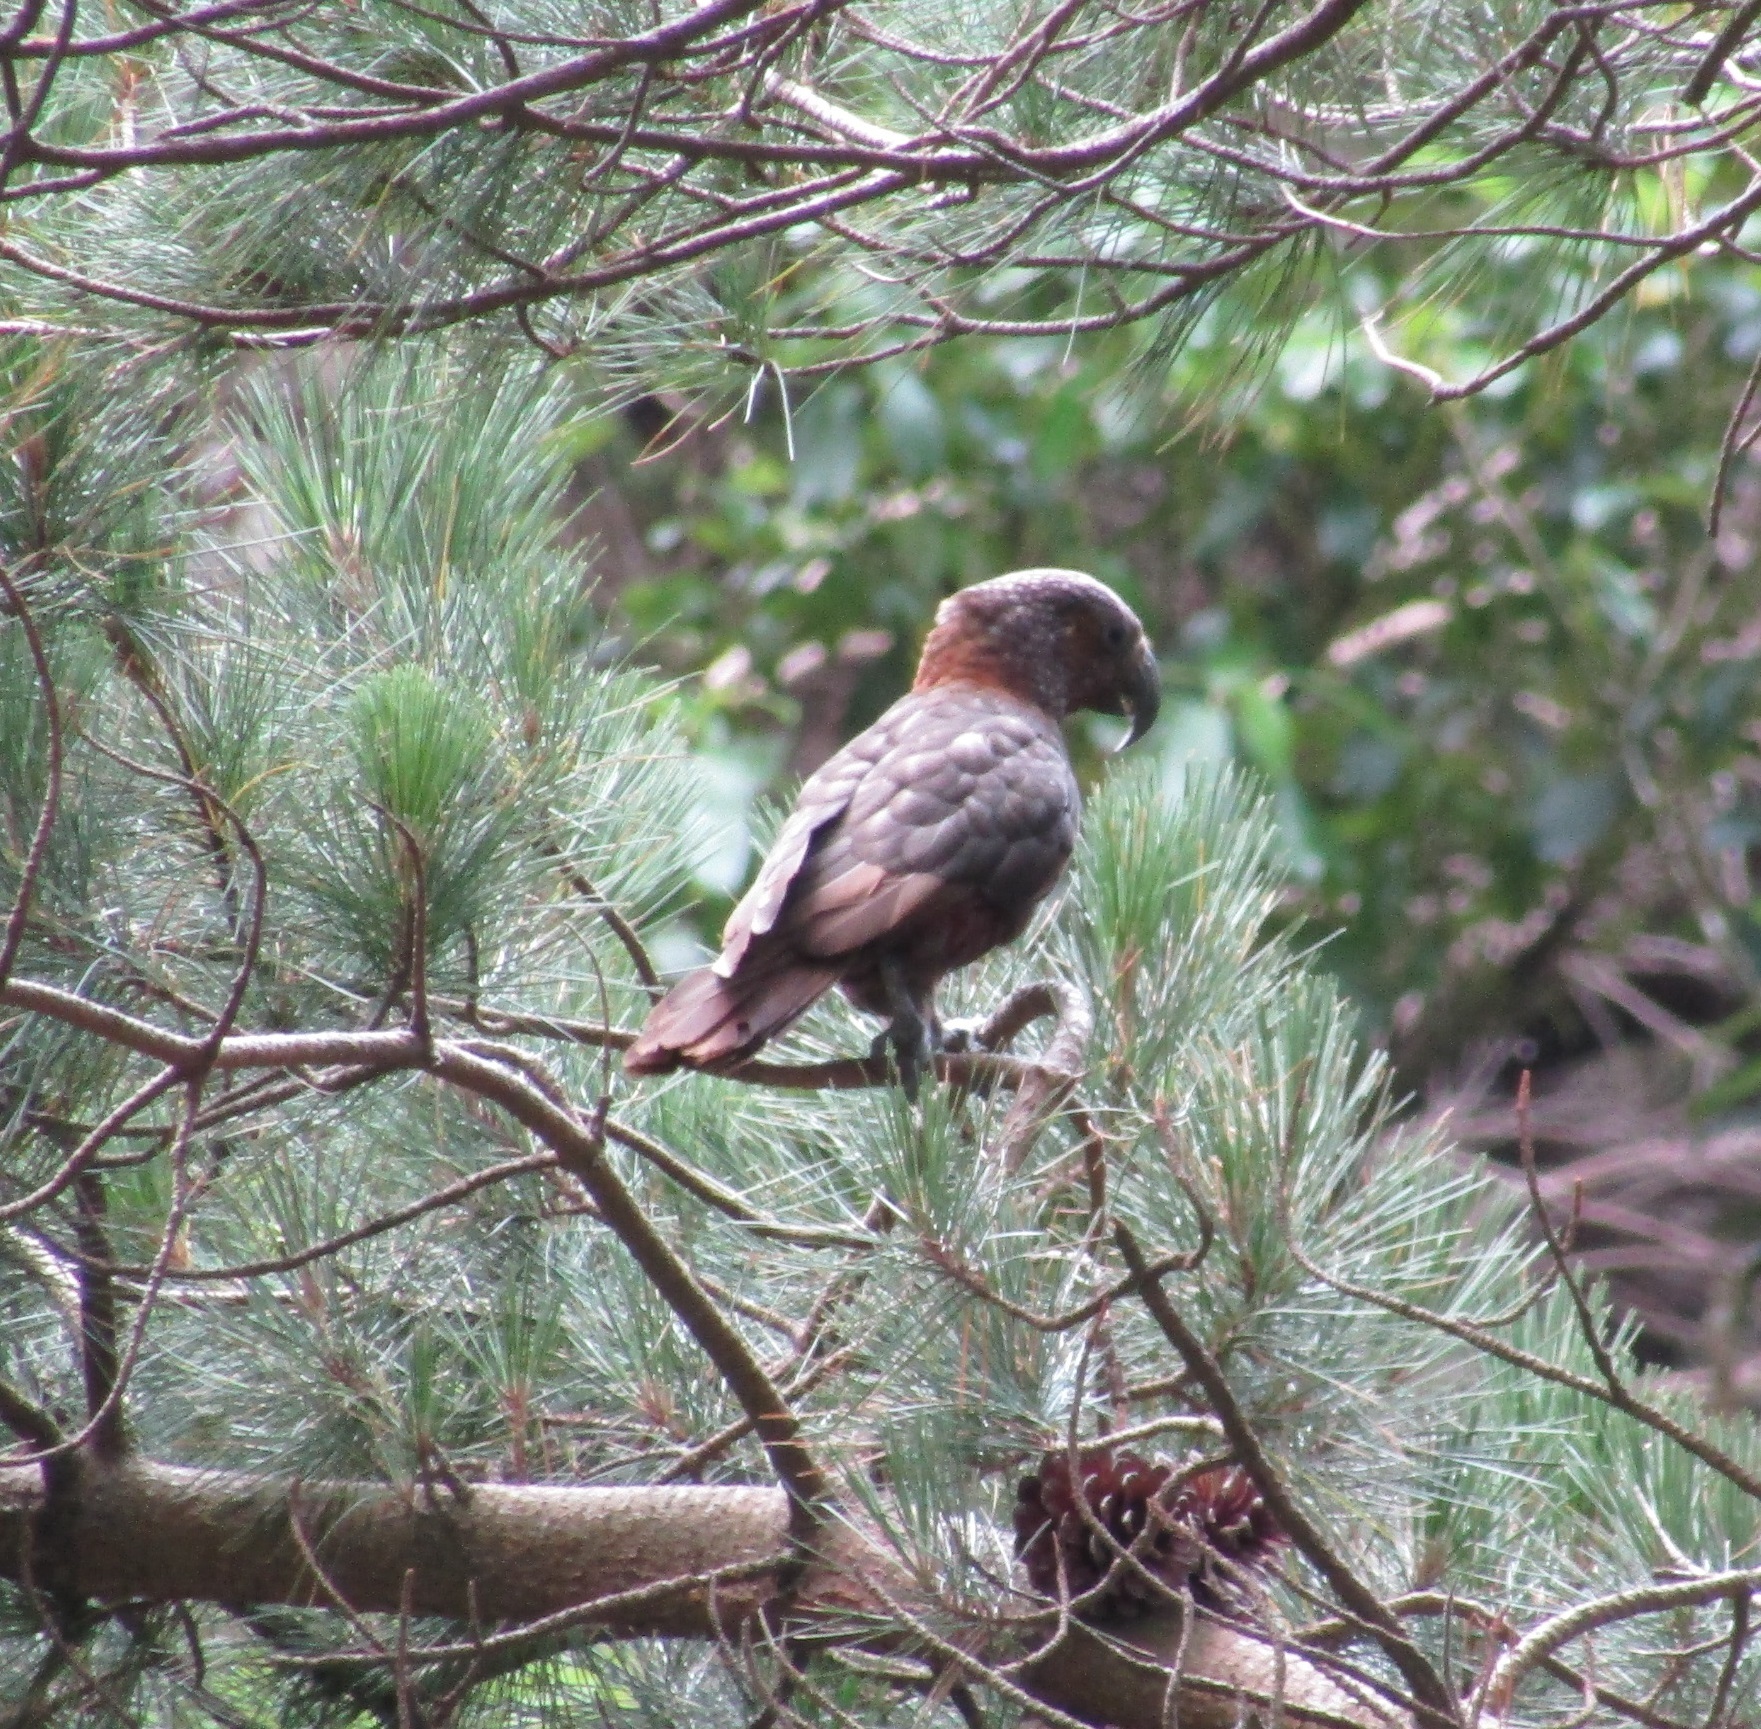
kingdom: Animalia
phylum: Chordata
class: Aves
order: Psittaciformes
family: Psittacidae
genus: Nestor
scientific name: Nestor meridionalis
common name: New zealand kaka
